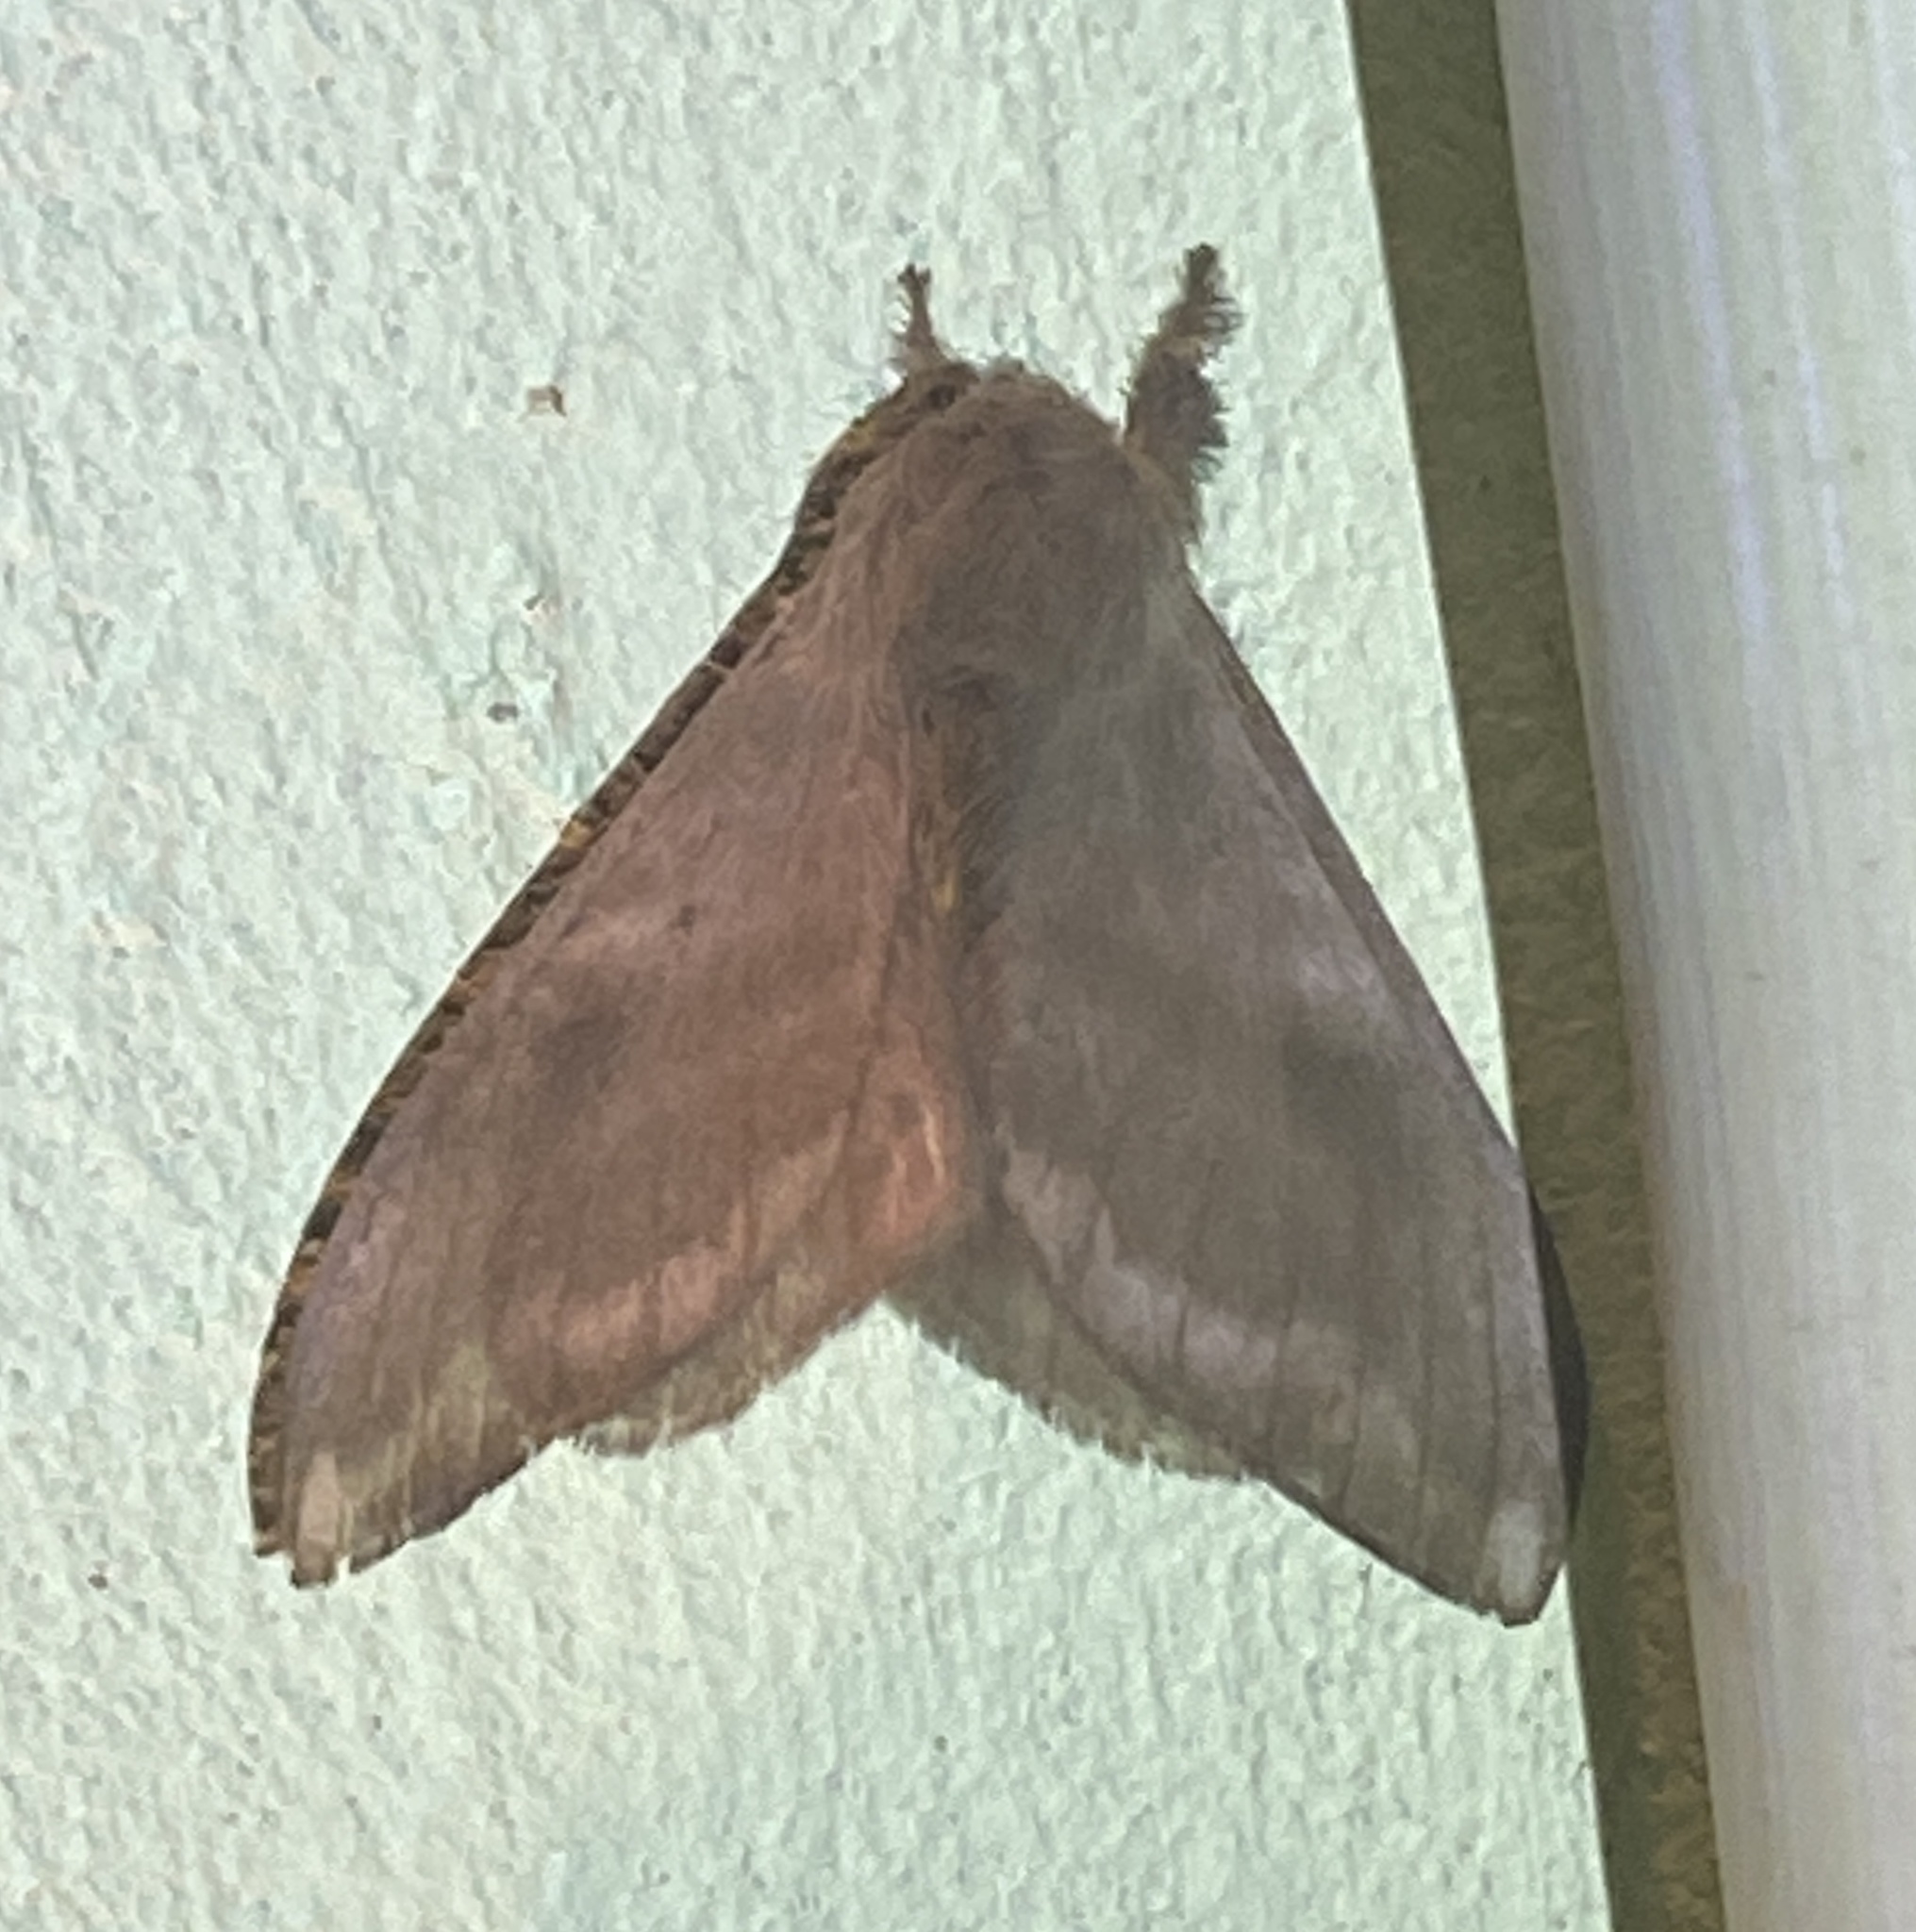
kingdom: Animalia
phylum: Arthropoda
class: Insecta
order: Lepidoptera
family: Saturniidae
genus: Hylesia
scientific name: Hylesia metabus
